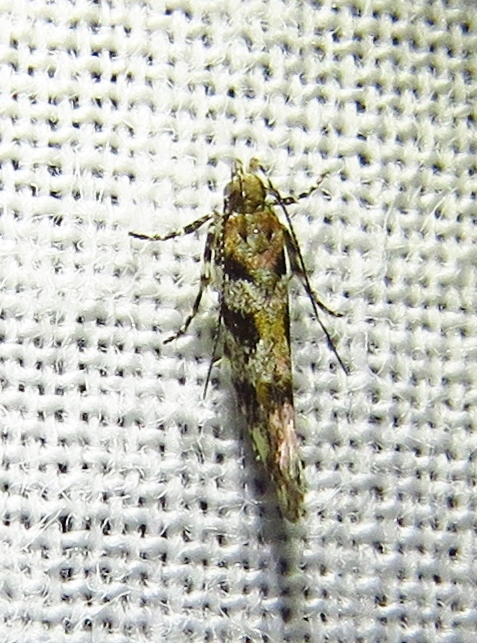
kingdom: Animalia
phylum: Arthropoda
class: Insecta
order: Lepidoptera
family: Gelechiidae
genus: Aristotelia
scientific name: Aristotelia roseosuffusella
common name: Pink-washed aristotelia moth
